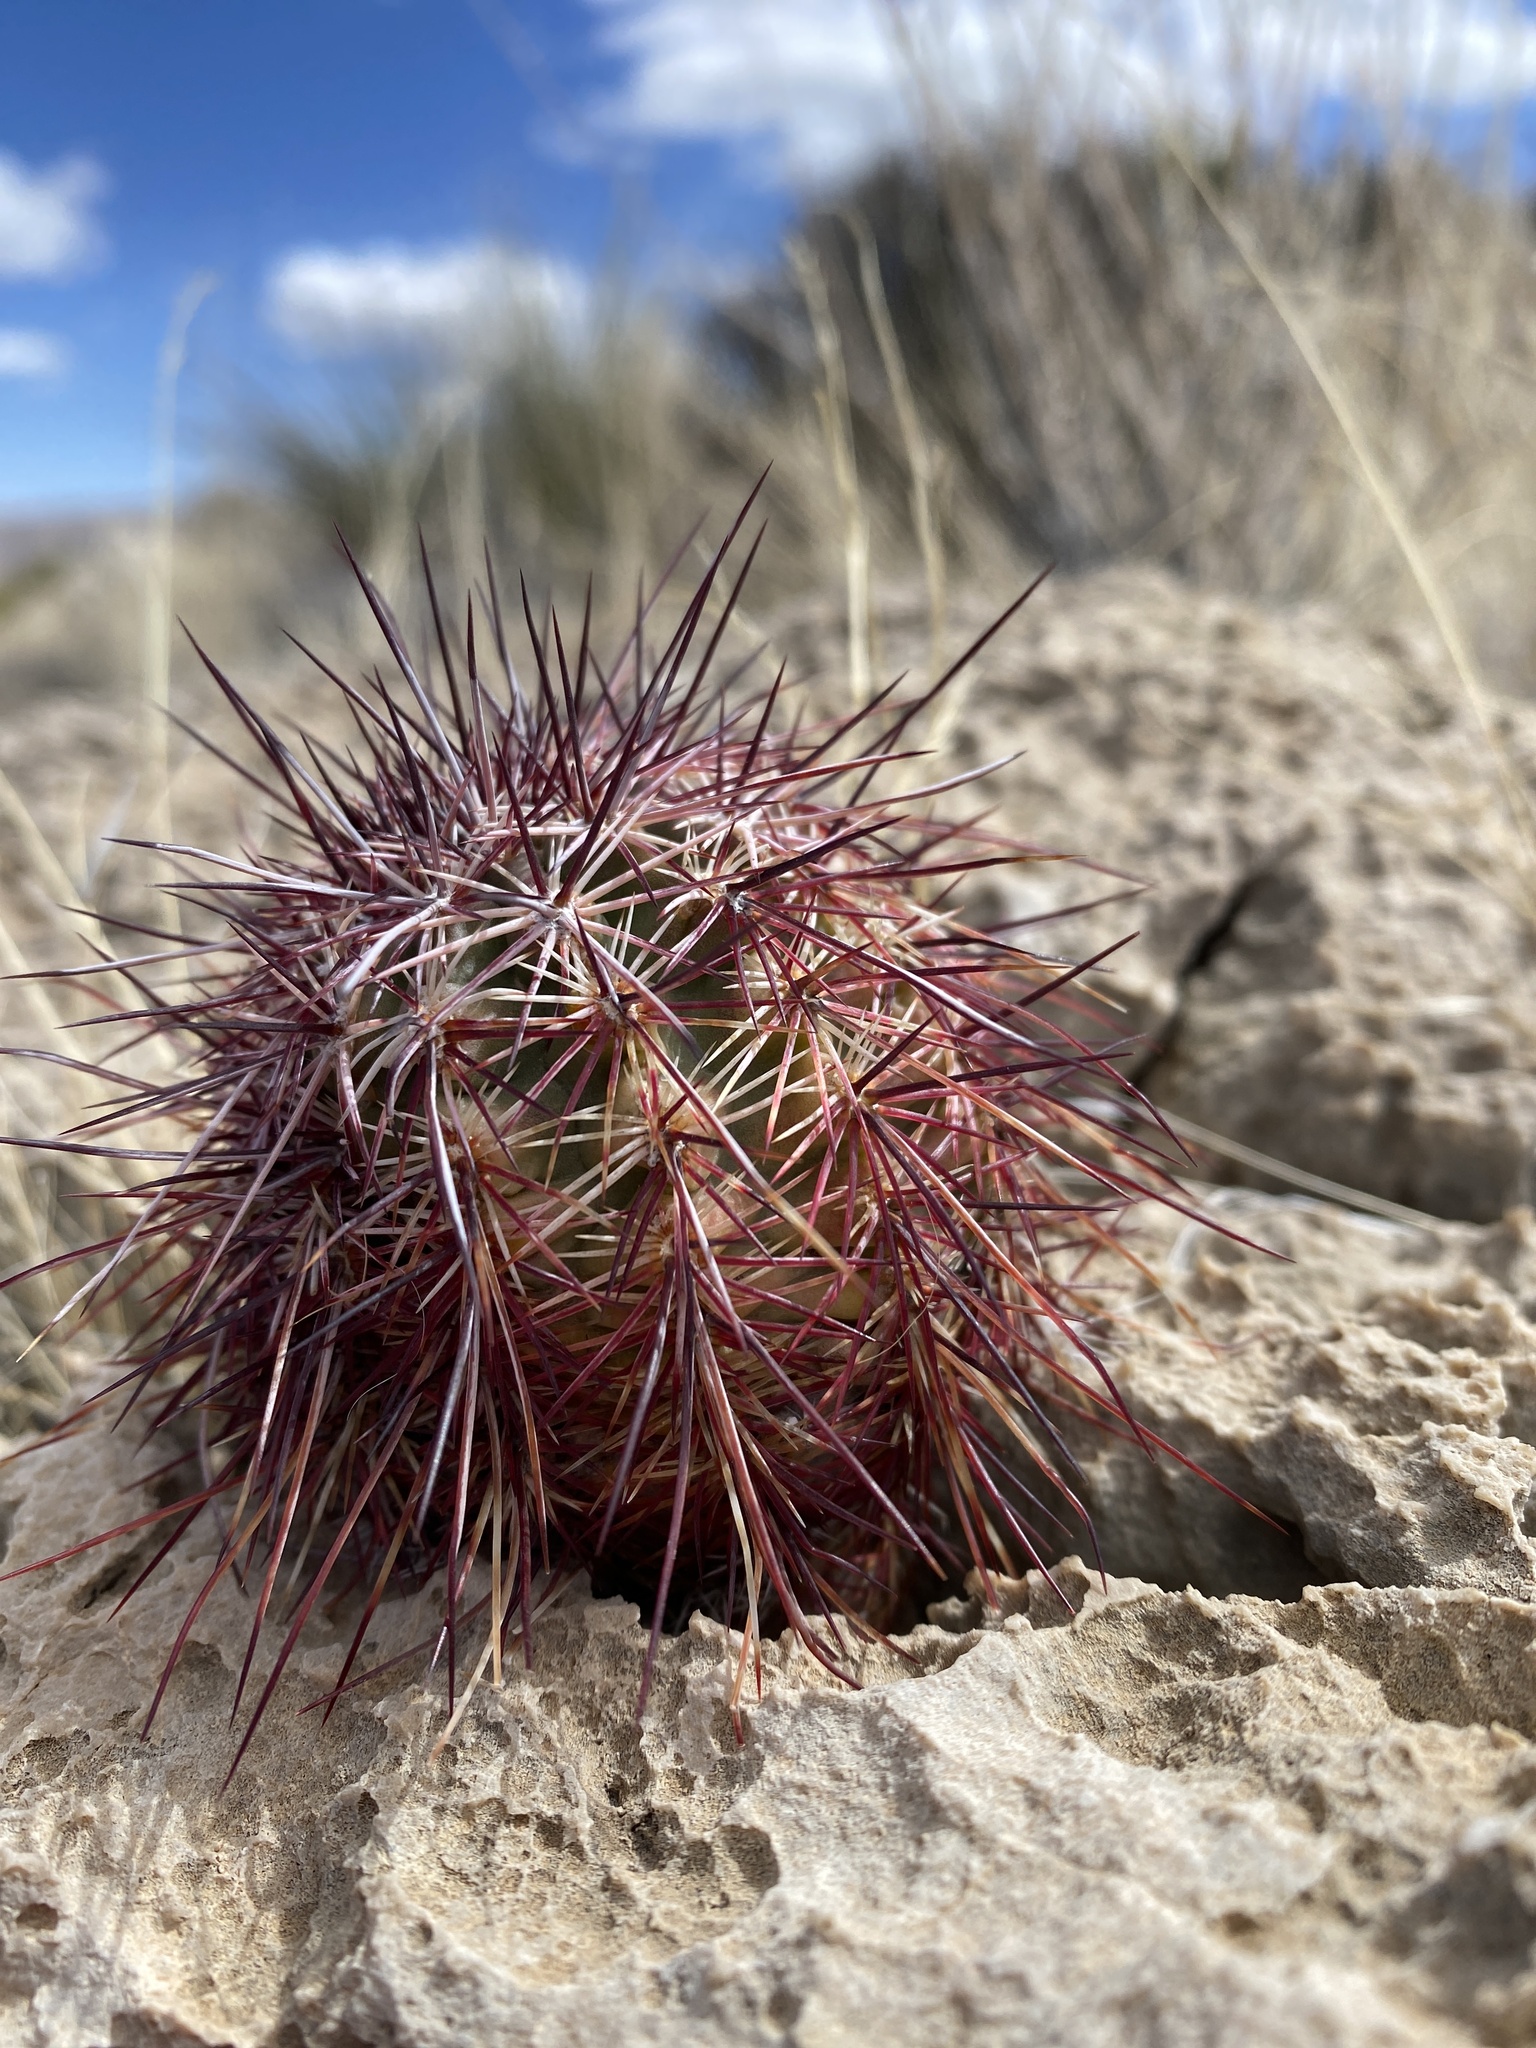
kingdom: Plantae
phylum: Tracheophyta
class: Magnoliopsida
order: Caryophyllales
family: Cactaceae
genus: Echinocereus
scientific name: Echinocereus viridiflorus
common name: Nylon hedgehog cactus
